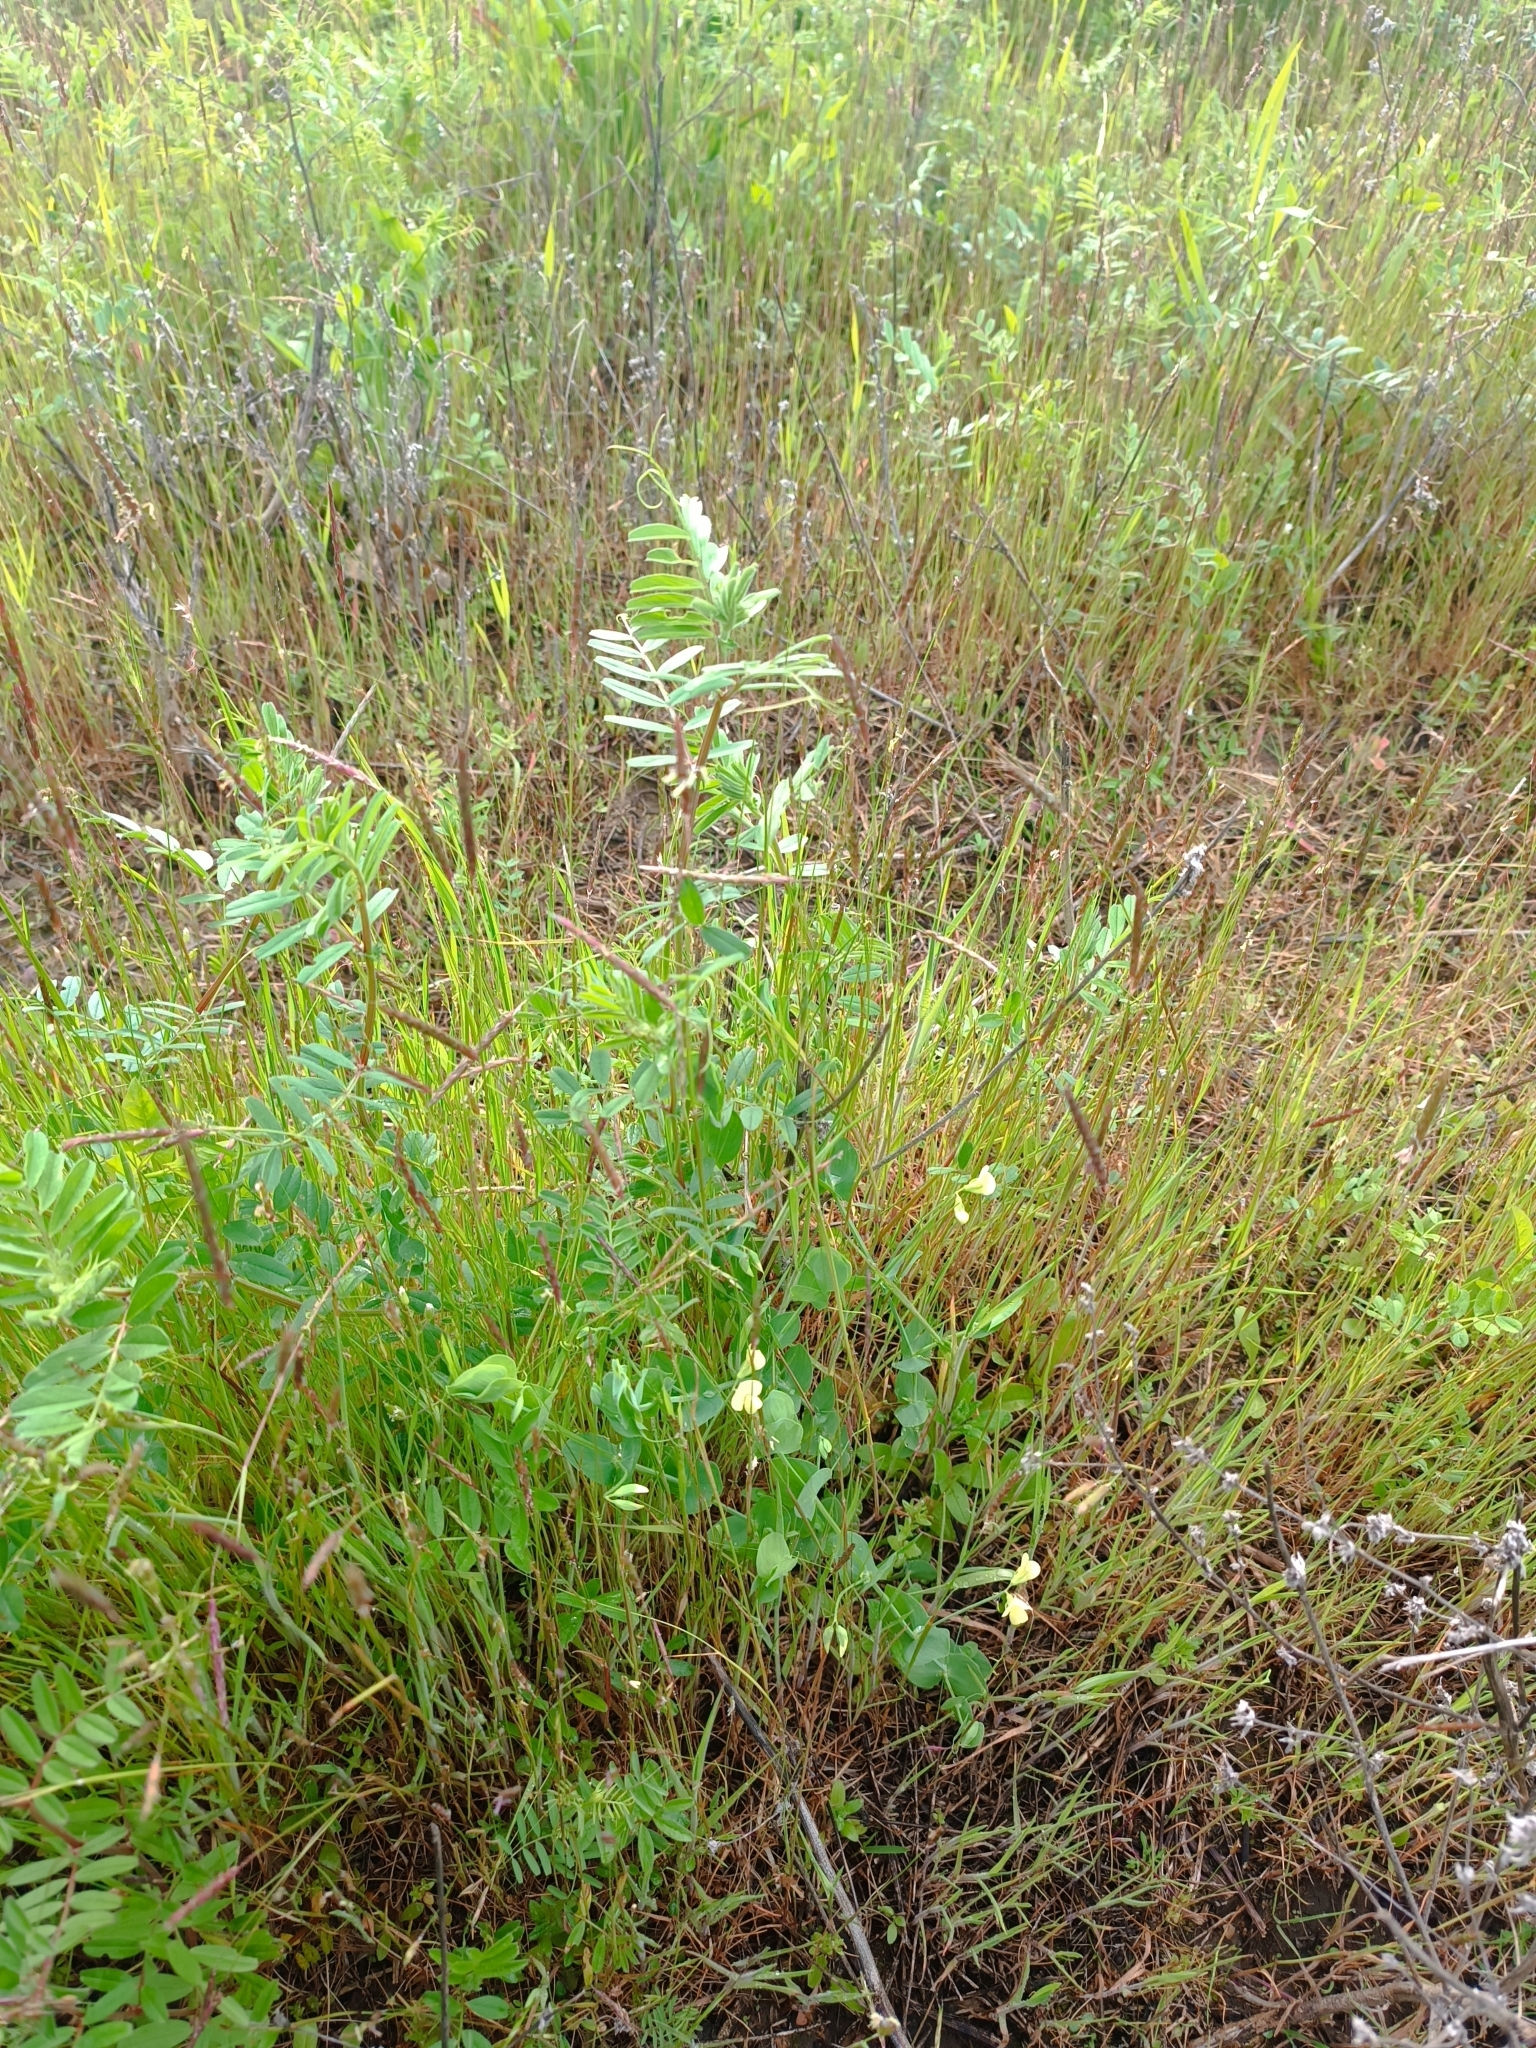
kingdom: Plantae
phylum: Tracheophyta
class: Magnoliopsida
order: Fabales
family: Fabaceae
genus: Lathyrus
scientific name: Lathyrus aphaca
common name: Yellow vetchling
